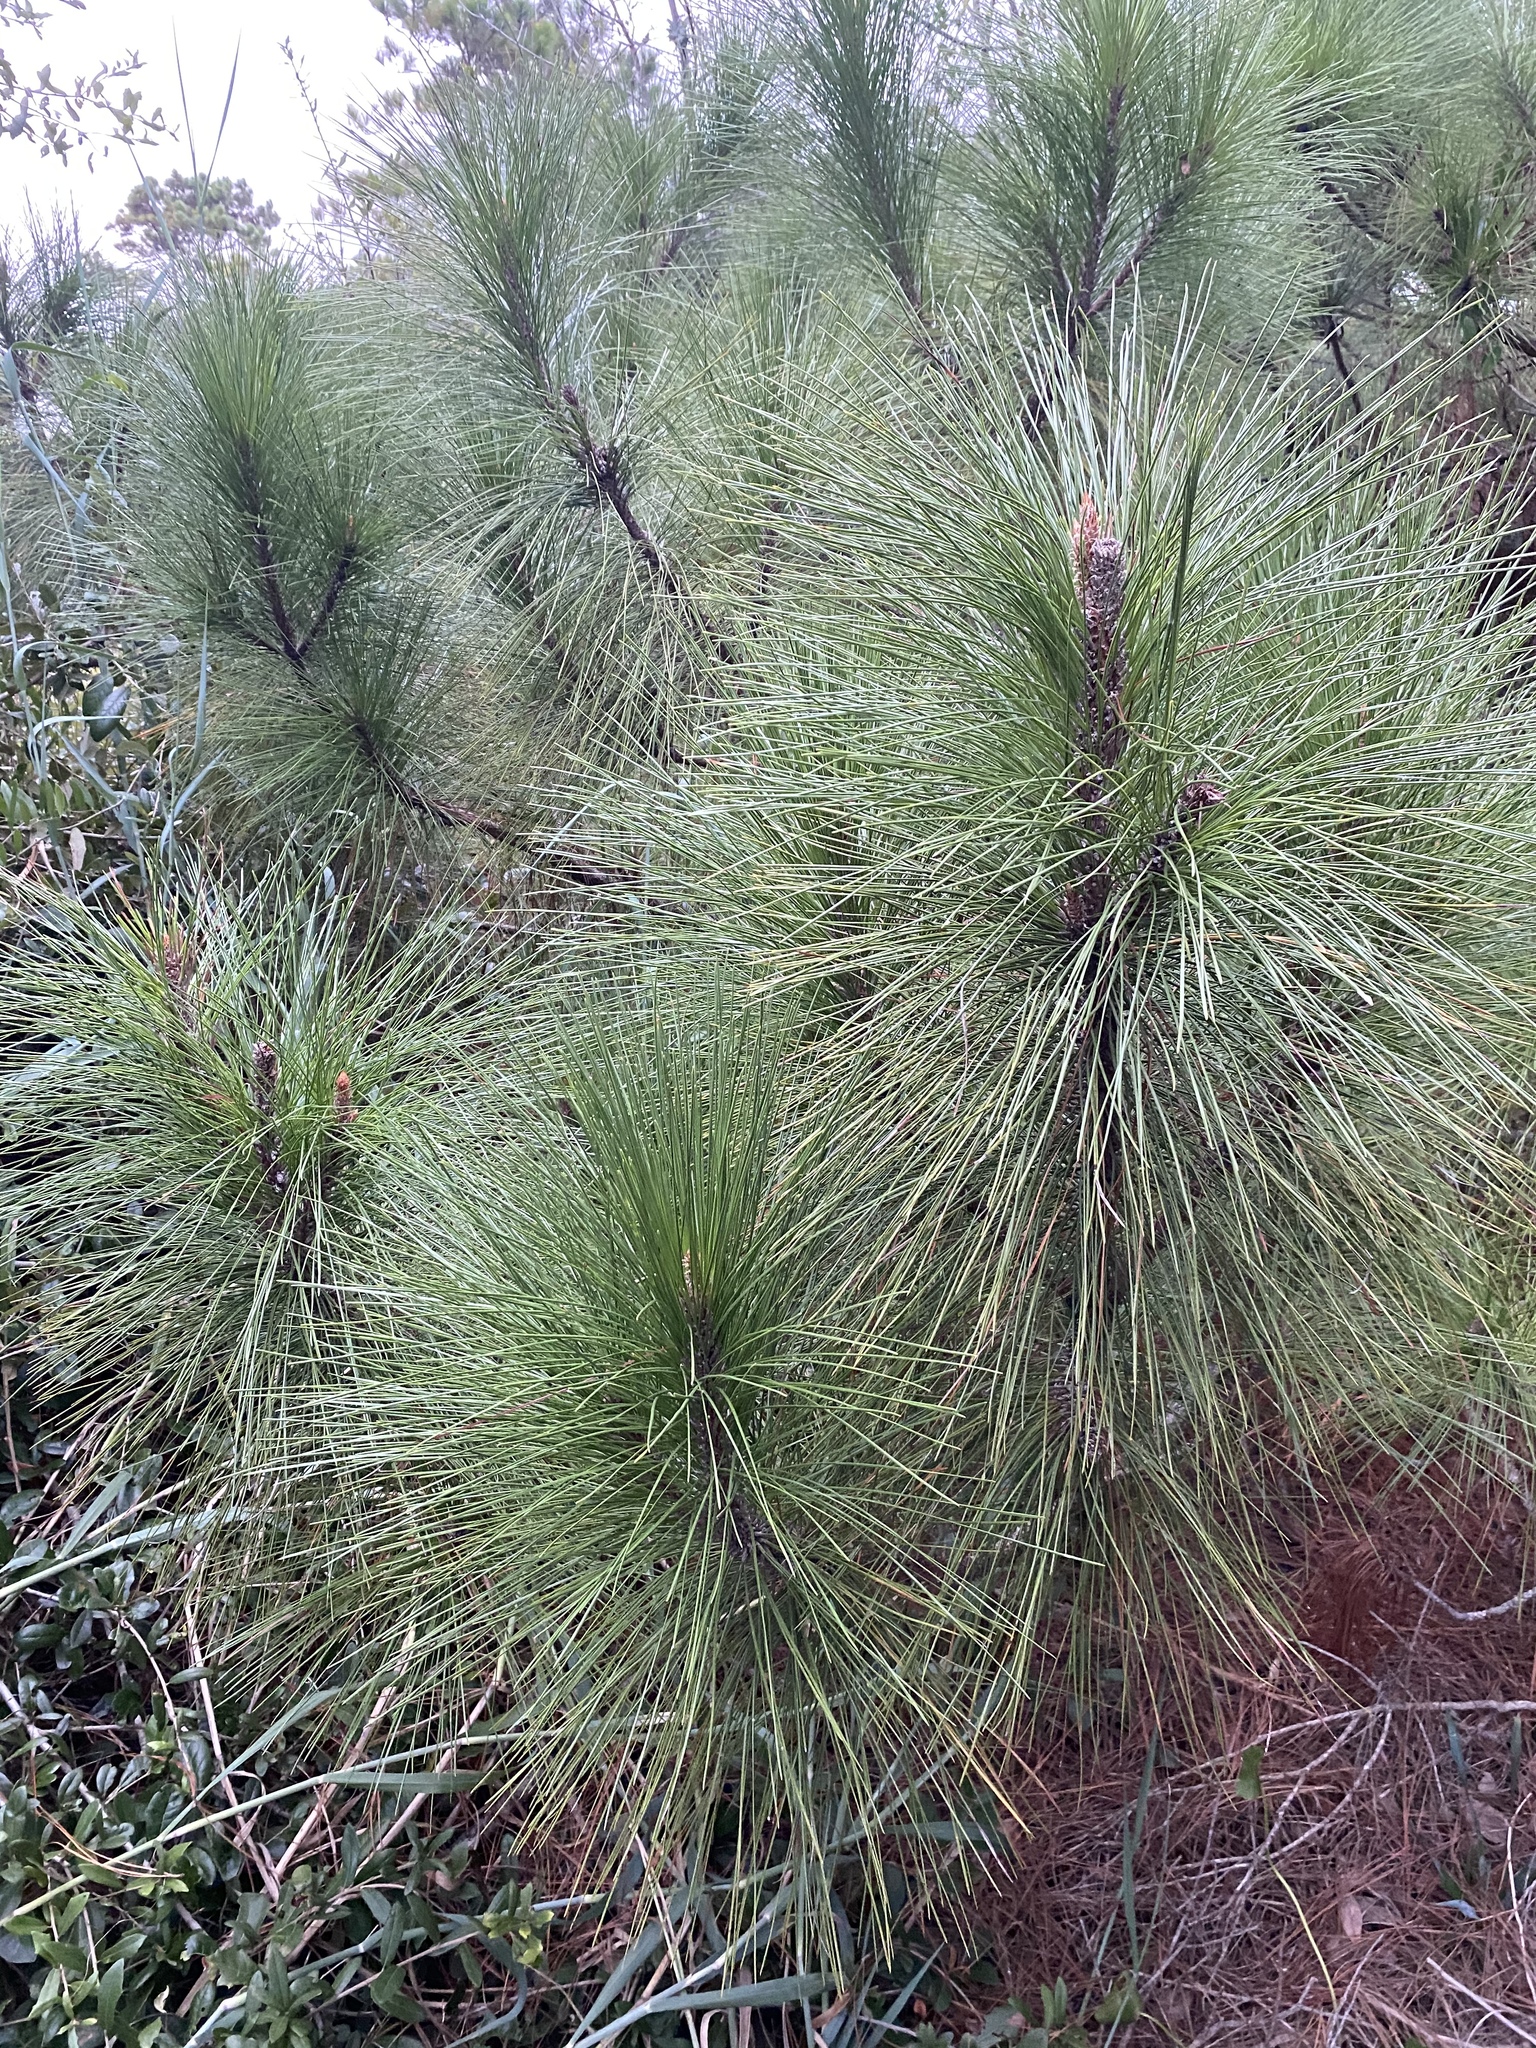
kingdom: Plantae
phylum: Tracheophyta
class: Pinopsida
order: Pinales
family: Pinaceae
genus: Pinus
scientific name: Pinus palustris
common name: Longleaf pine
